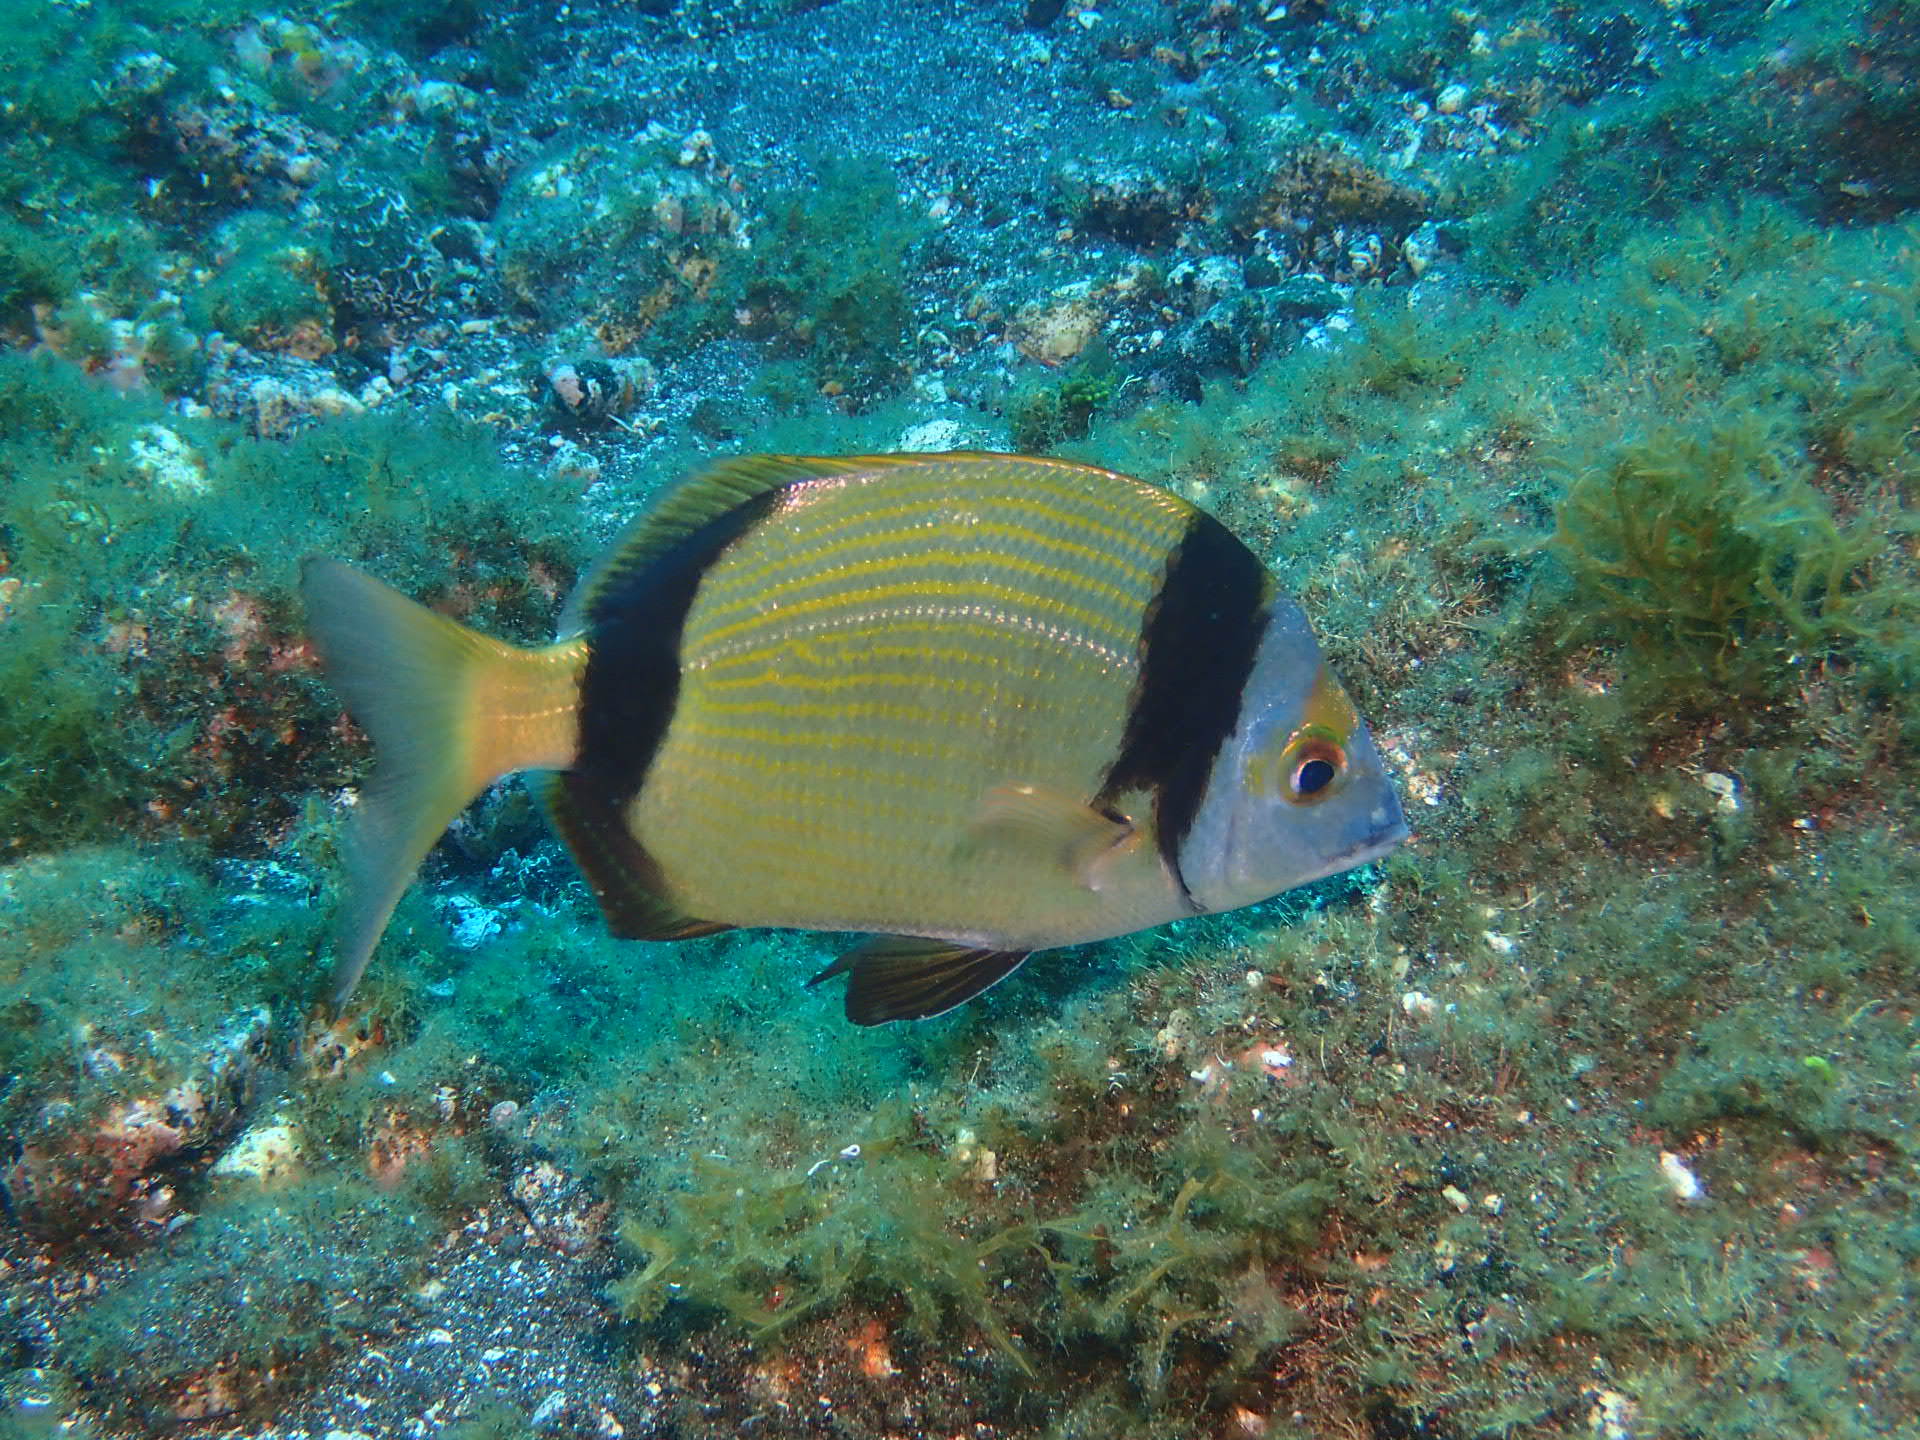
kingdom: Animalia
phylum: Chordata
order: Perciformes
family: Sparidae
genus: Diplodus
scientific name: Diplodus vulgaris
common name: Common two-banded seabream
